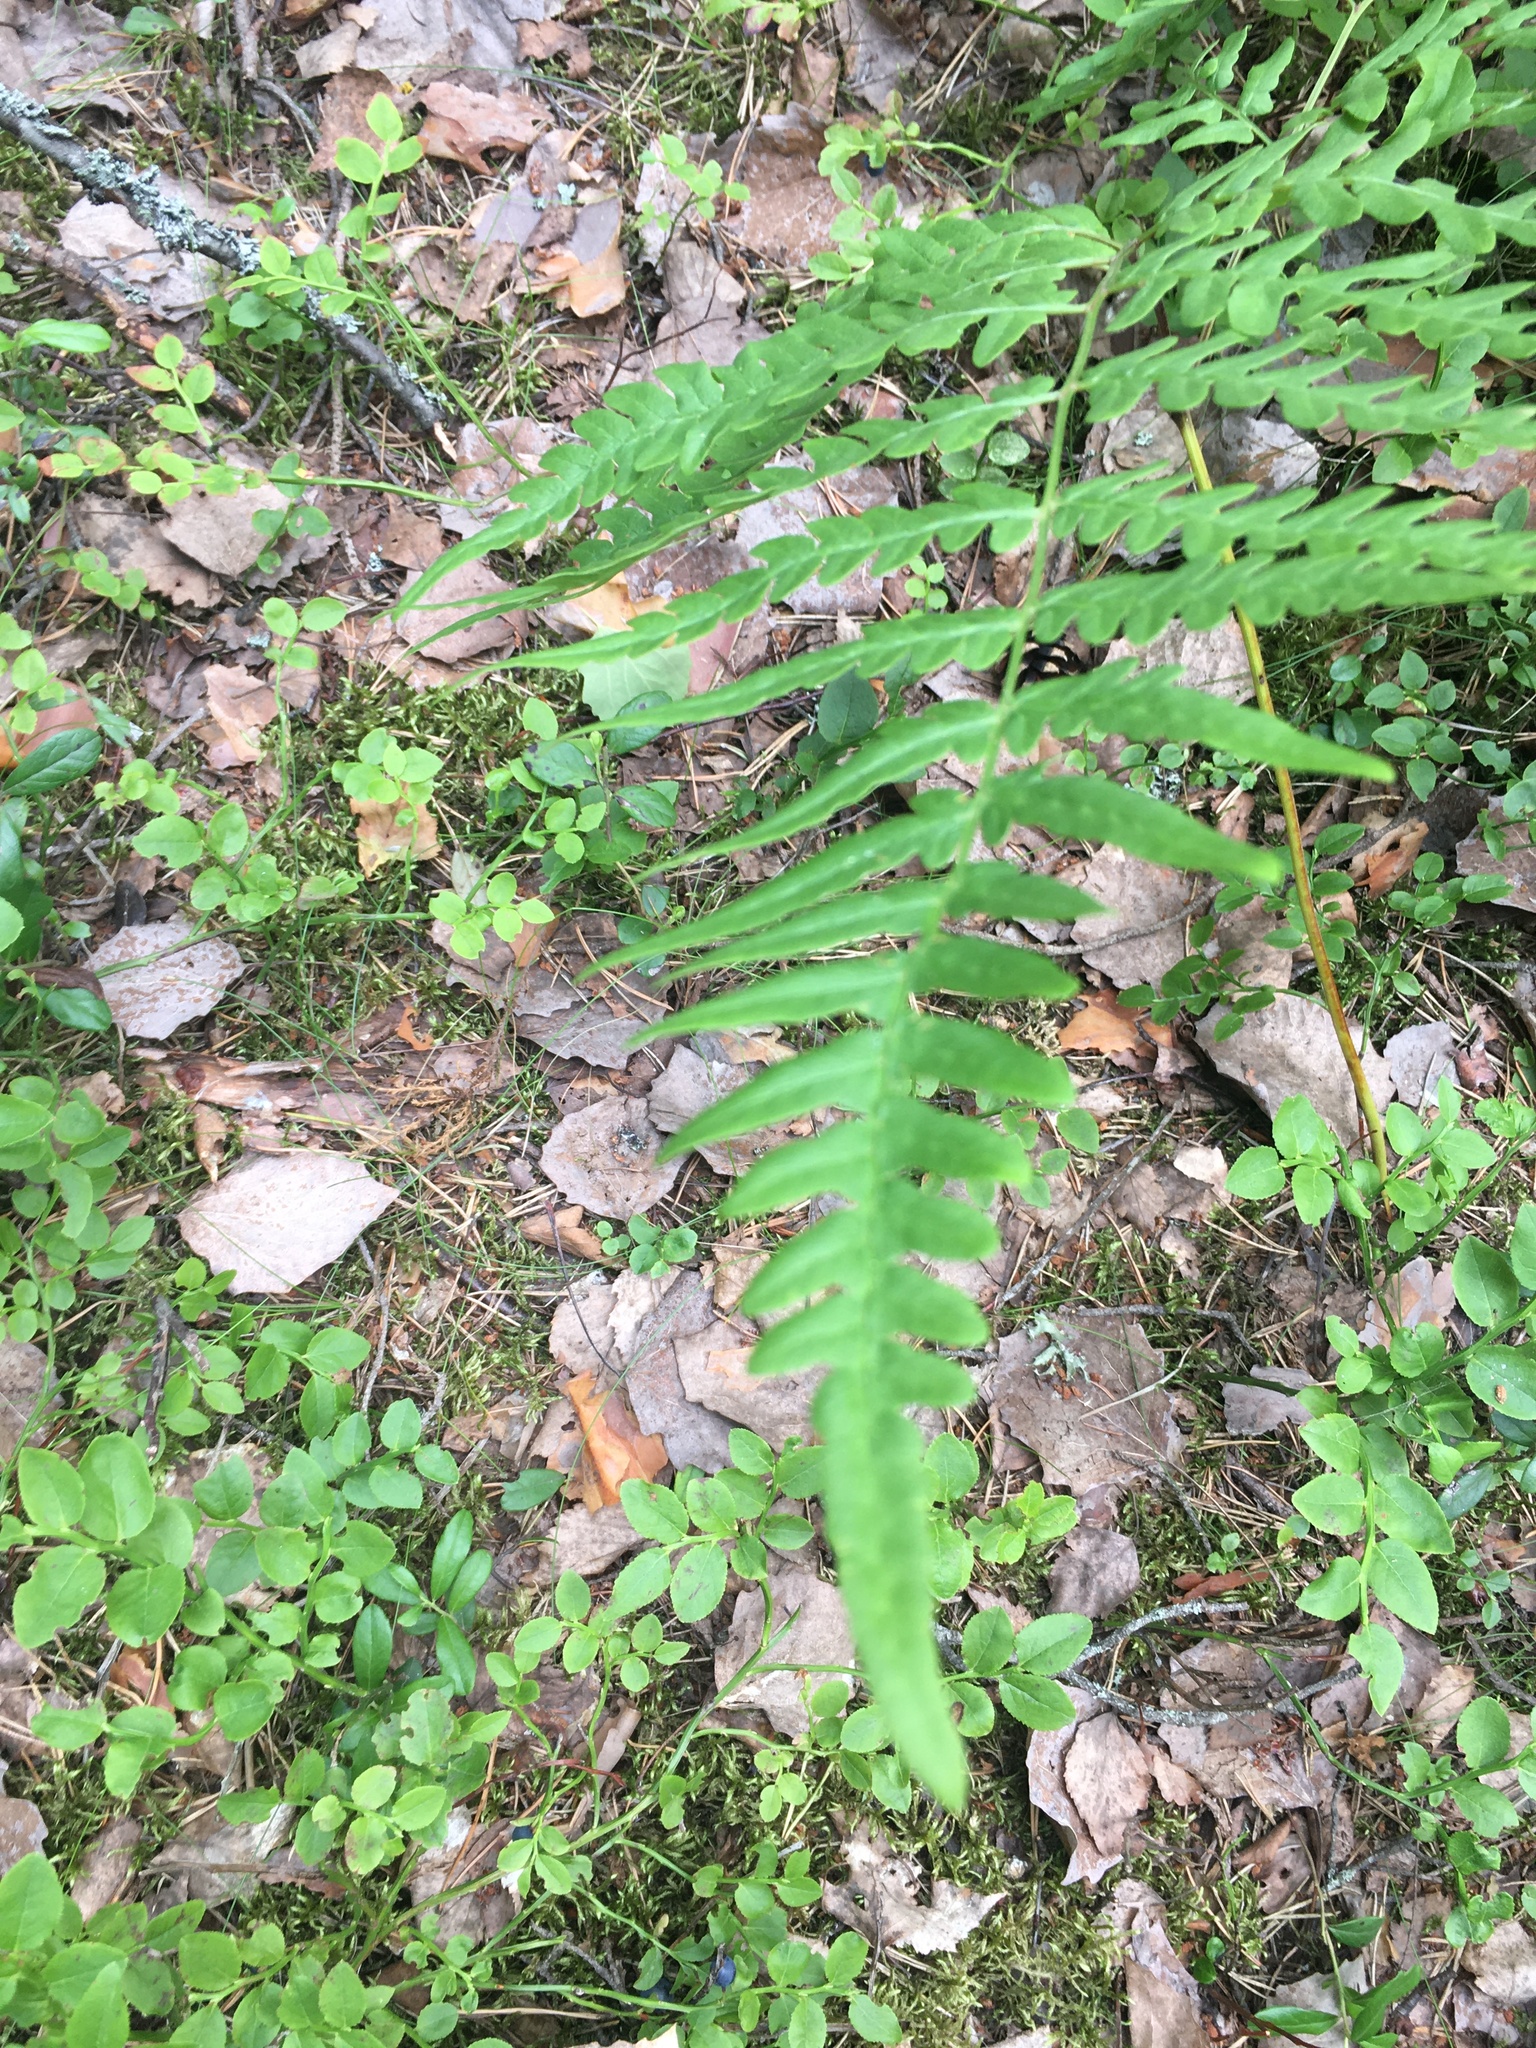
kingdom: Plantae
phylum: Tracheophyta
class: Polypodiopsida
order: Polypodiales
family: Dennstaedtiaceae
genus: Pteridium
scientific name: Pteridium aquilinum
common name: Bracken
